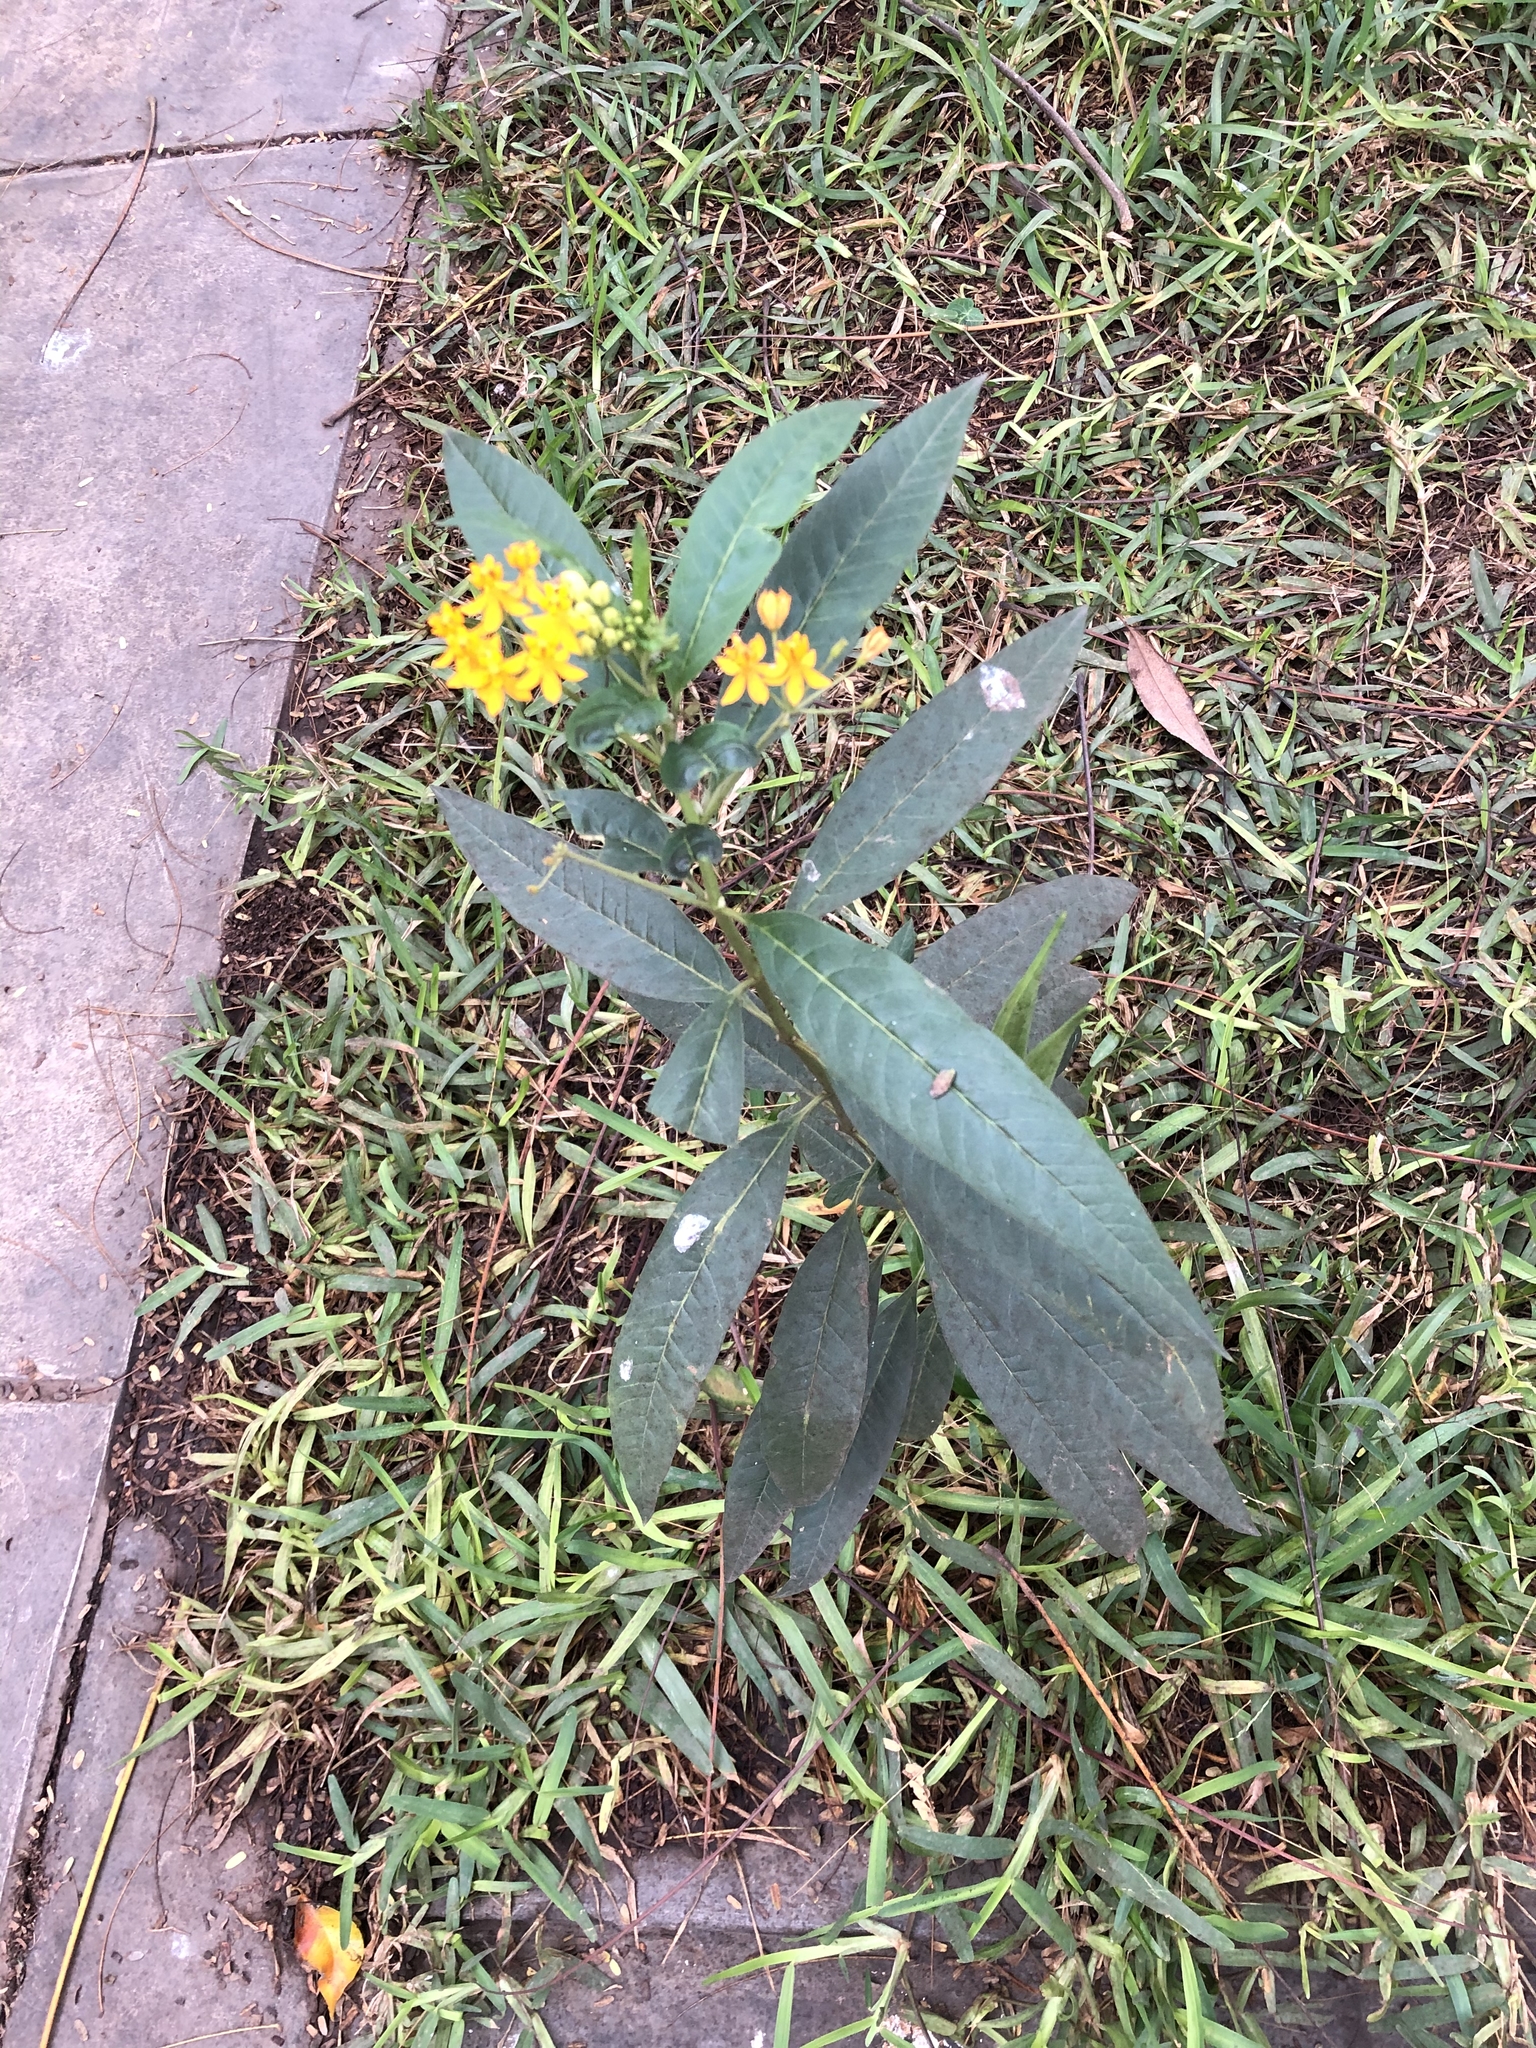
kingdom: Plantae
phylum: Tracheophyta
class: Magnoliopsida
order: Gentianales
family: Apocynaceae
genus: Asclepias
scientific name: Asclepias curassavica
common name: Bloodflower
